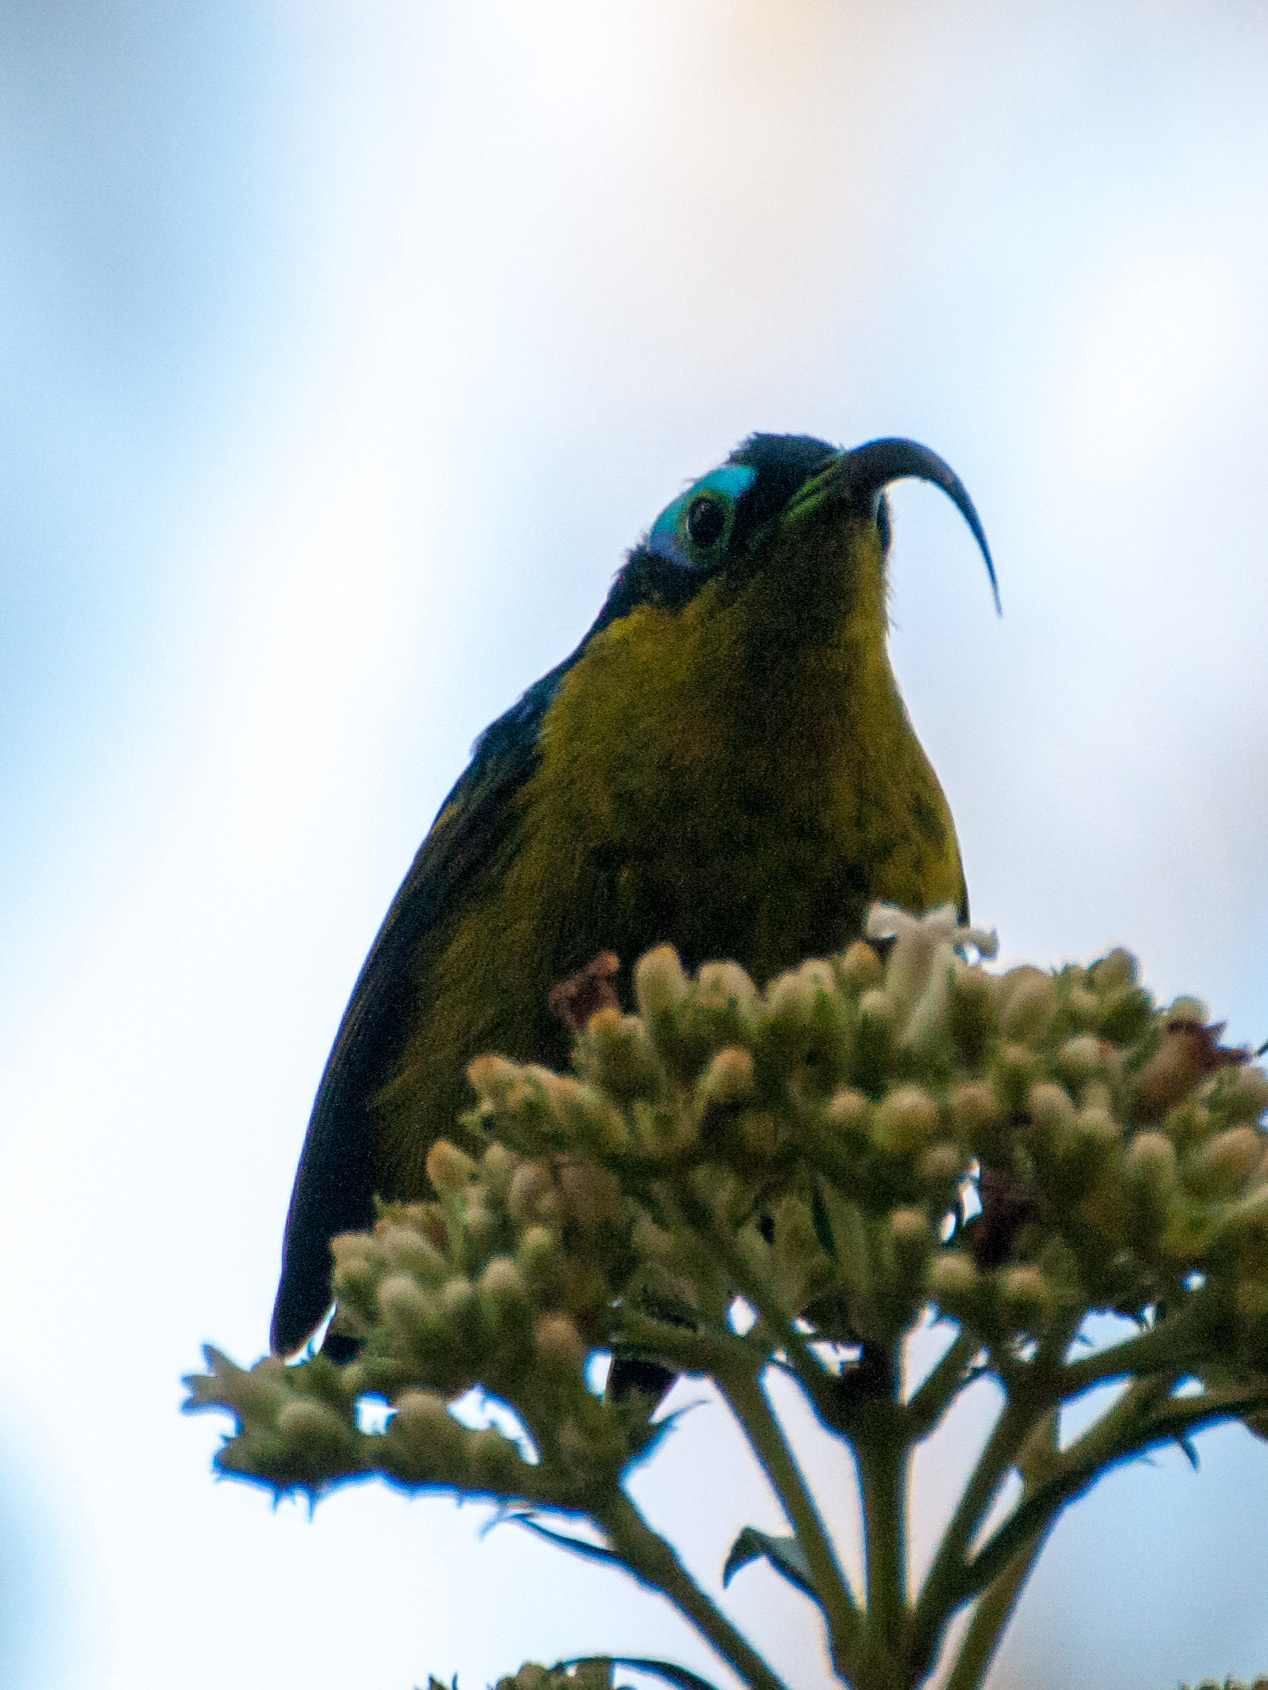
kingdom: Animalia
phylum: Chordata
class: Aves
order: Passeriformes
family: Philepittidae
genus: Neodrepanis
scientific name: Neodrepanis coruscans
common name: Common sunbird-asity
